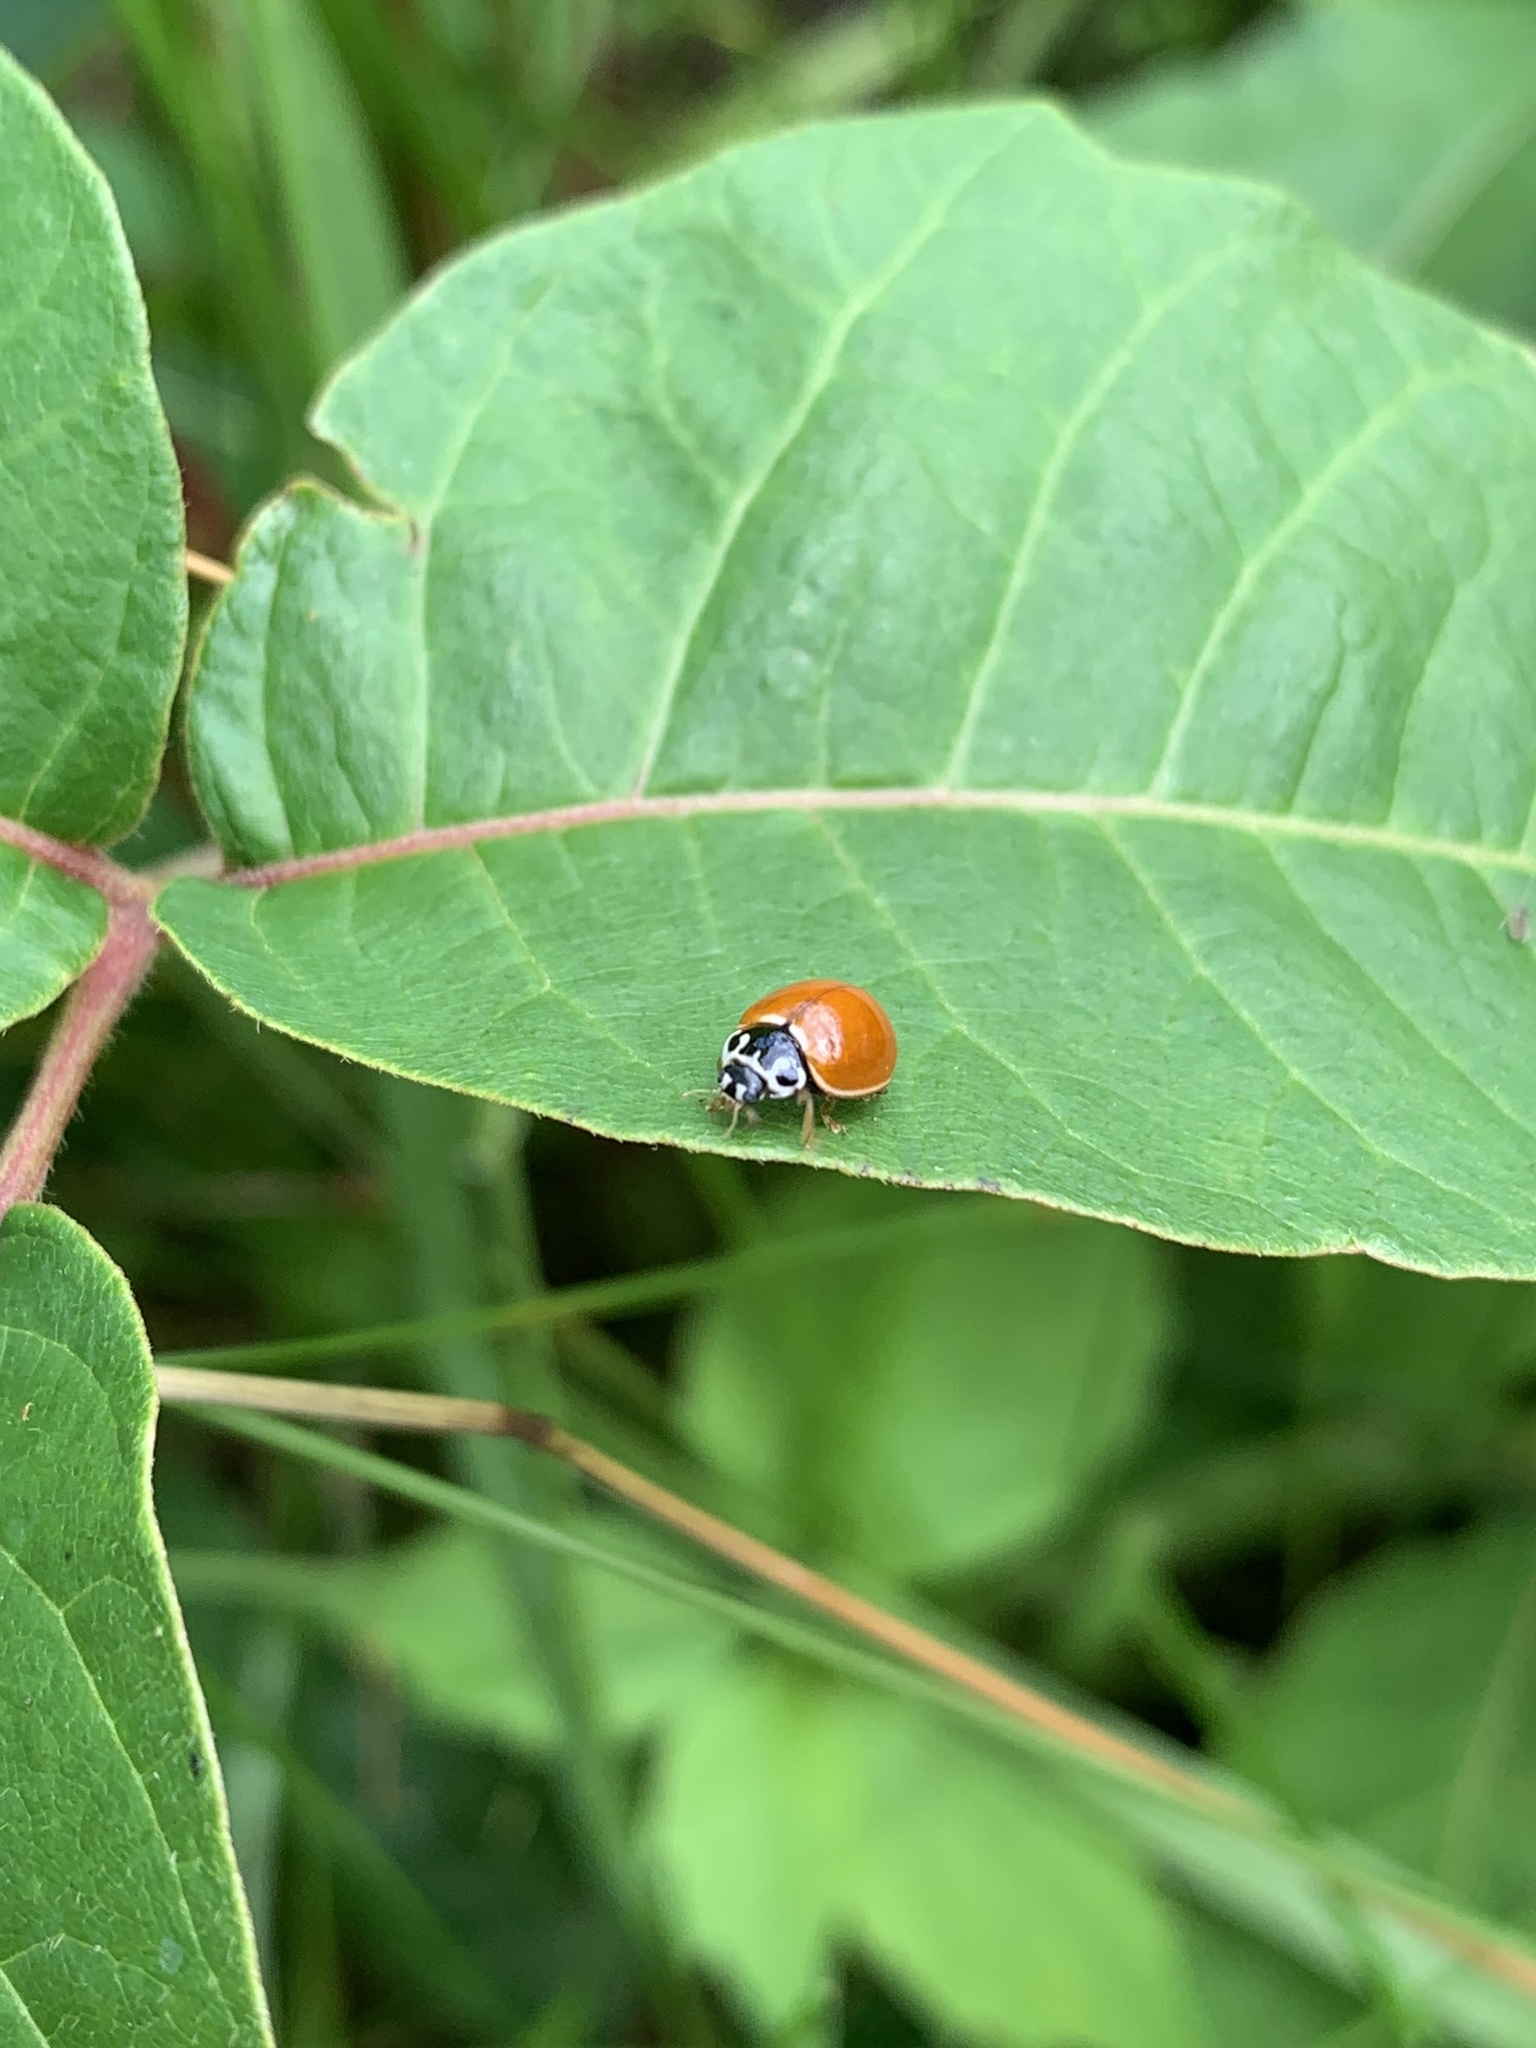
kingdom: Animalia
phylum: Arthropoda
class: Insecta
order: Coleoptera
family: Coccinellidae
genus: Cycloneda
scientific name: Cycloneda munda
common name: Polished lady beetle
